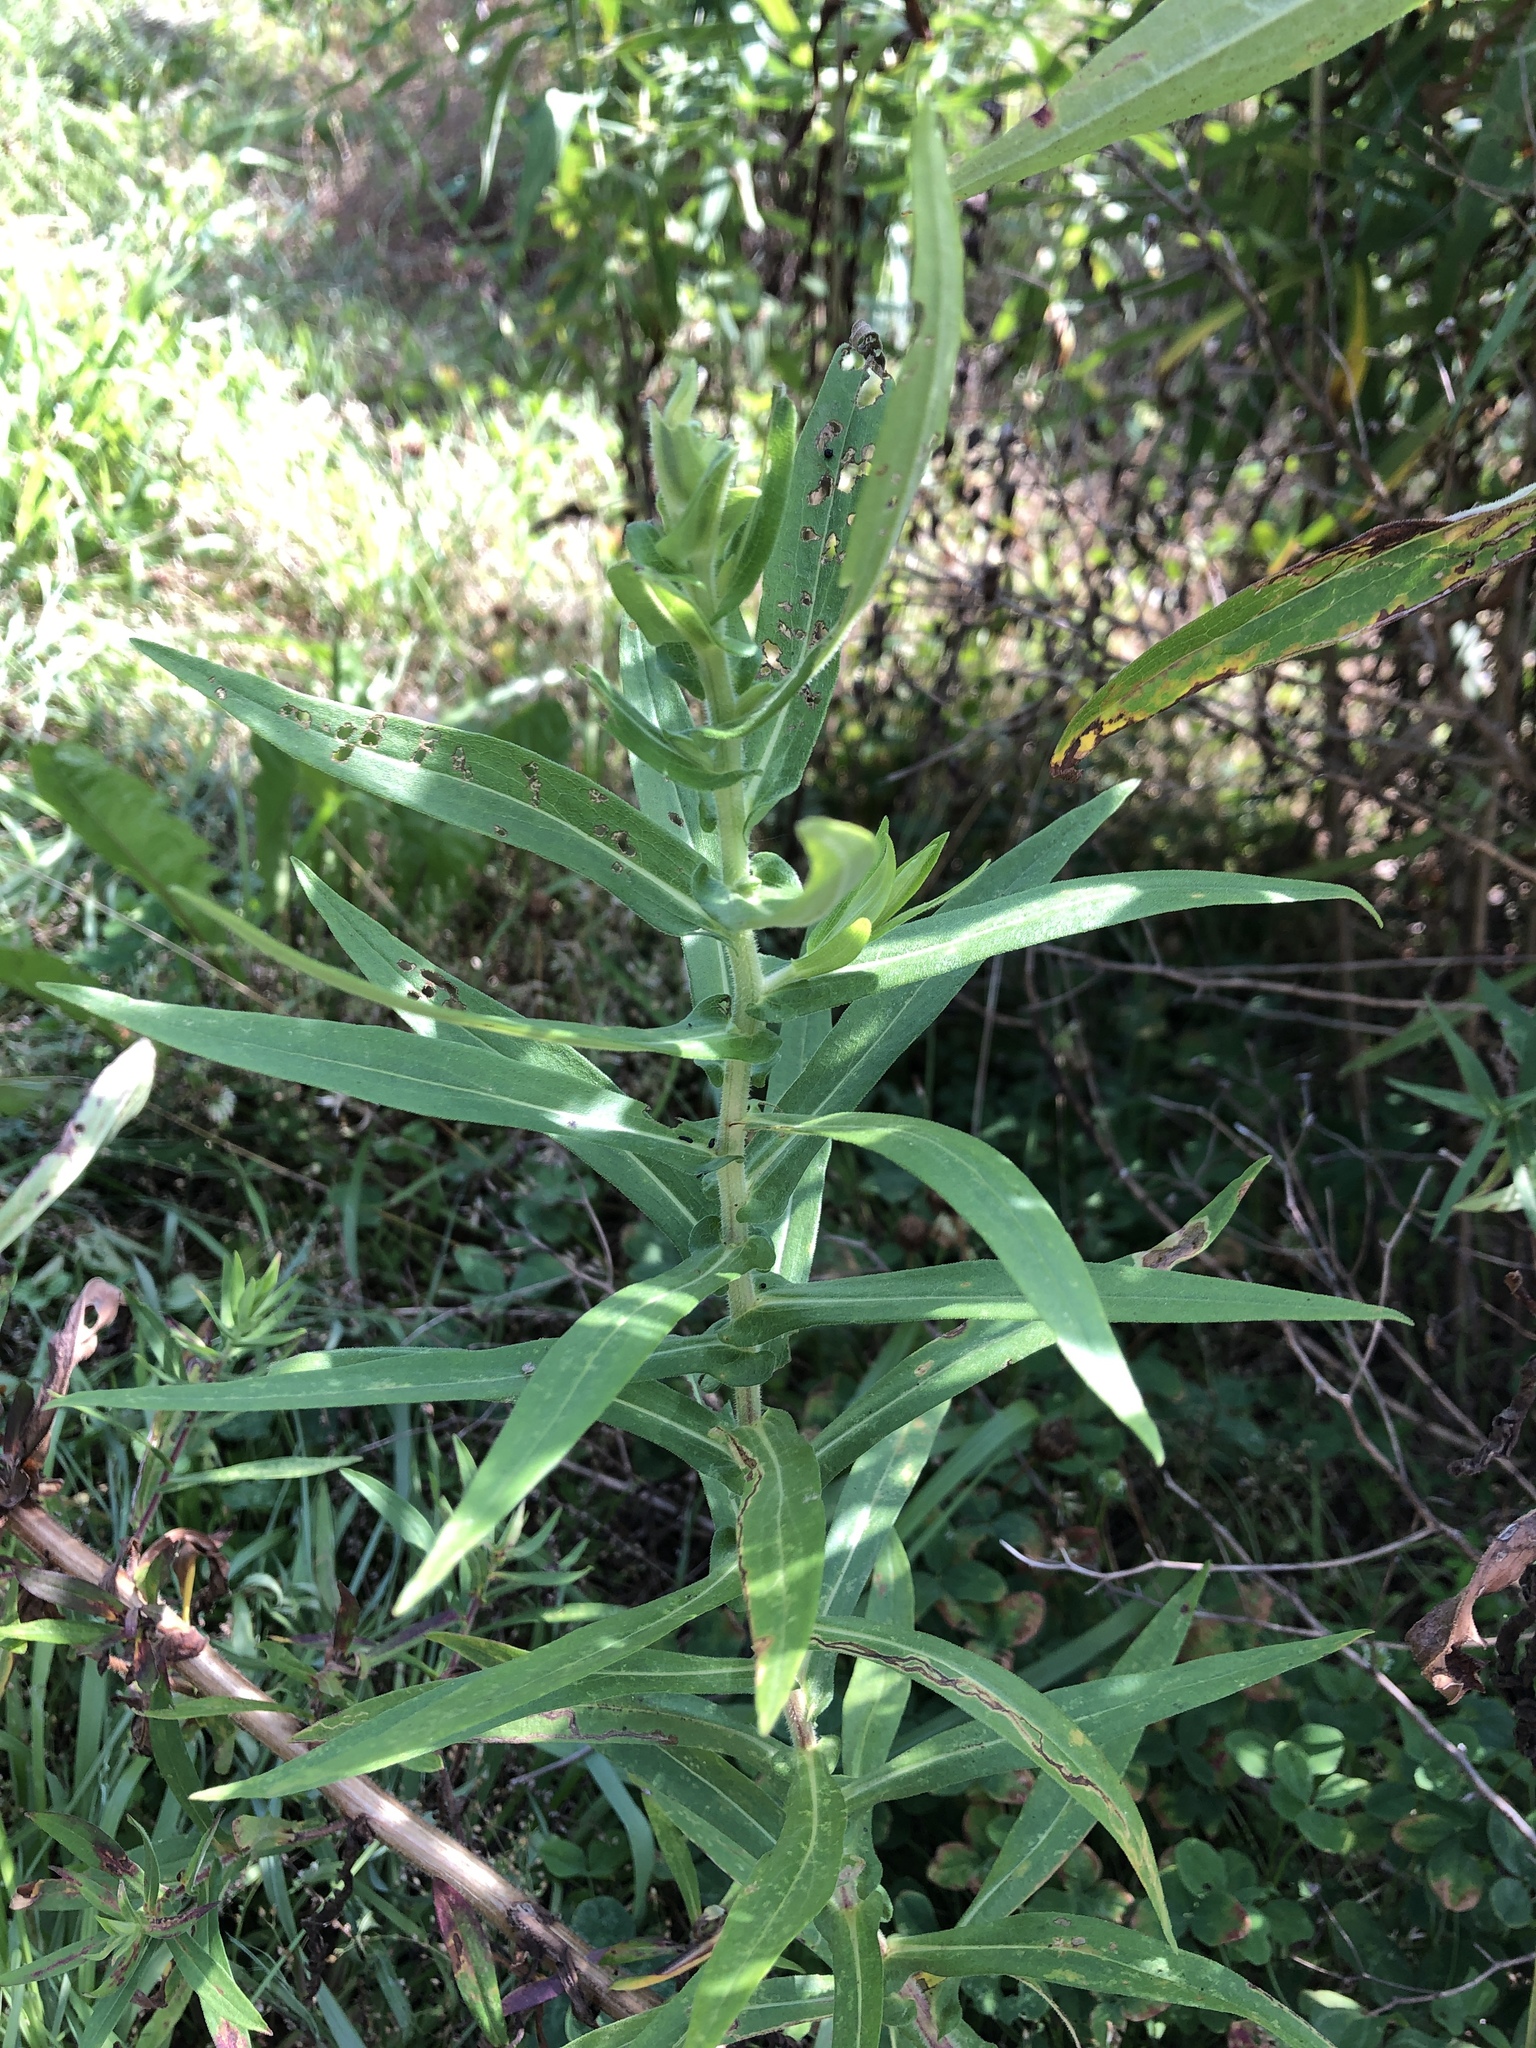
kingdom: Plantae
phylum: Tracheophyta
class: Magnoliopsida
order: Asterales
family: Asteraceae
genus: Symphyotrichum
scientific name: Symphyotrichum novae-angliae
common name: Michaelmas daisy
